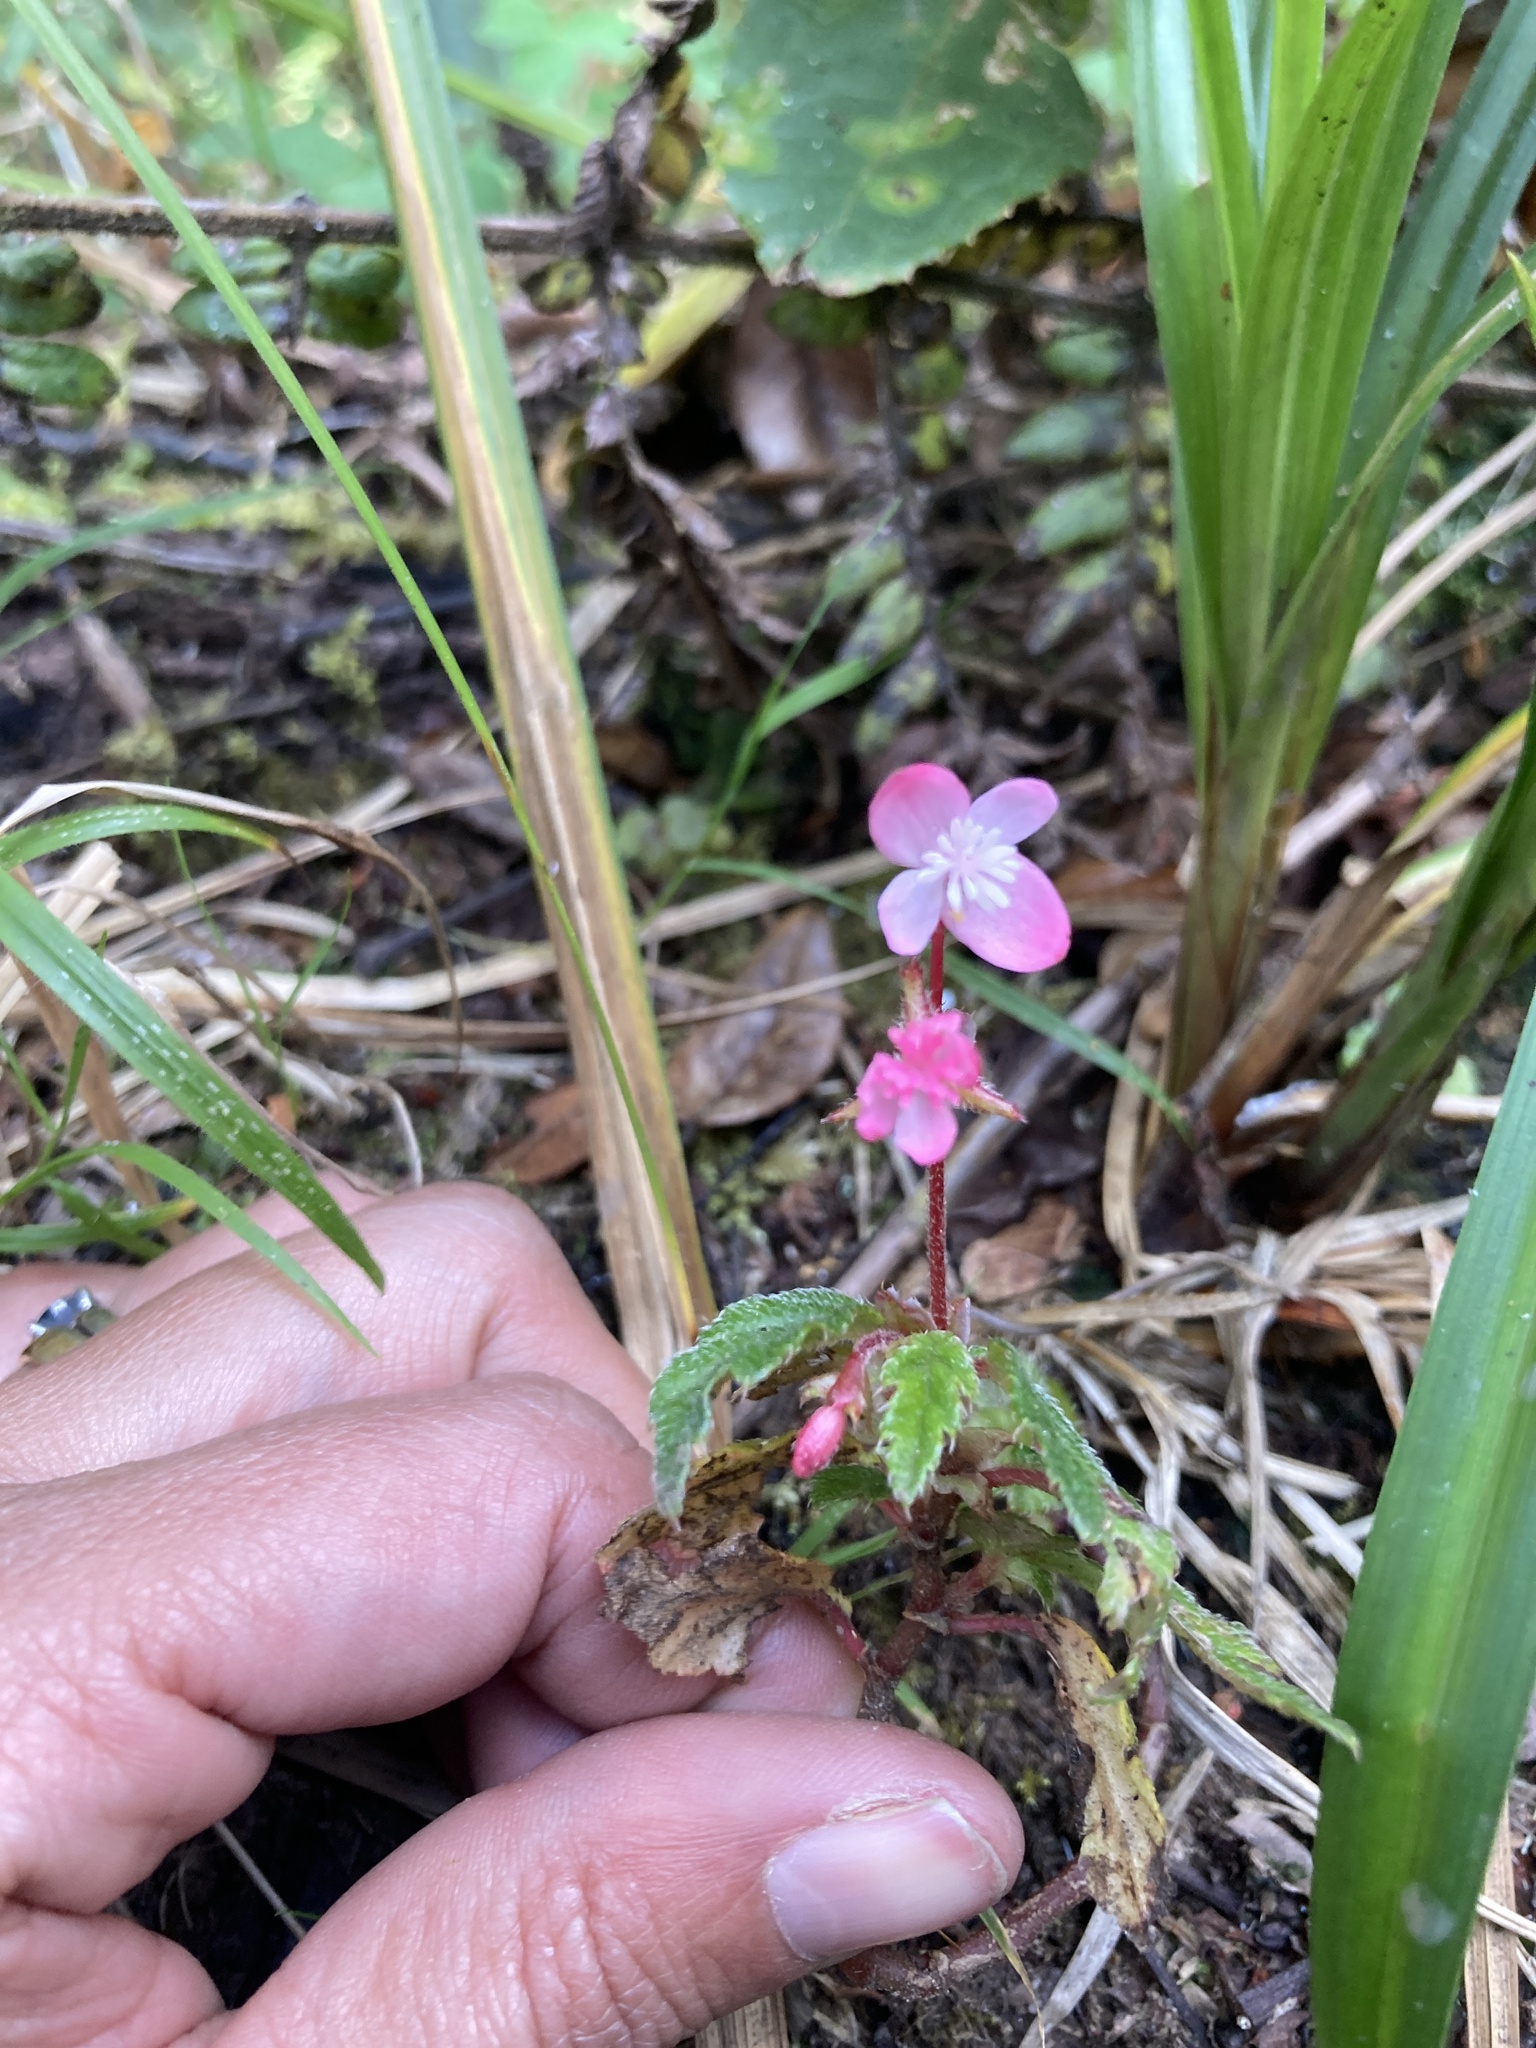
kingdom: Plantae
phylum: Tracheophyta
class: Magnoliopsida
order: Cucurbitales
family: Begoniaceae
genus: Begonia
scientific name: Begonia urticae
